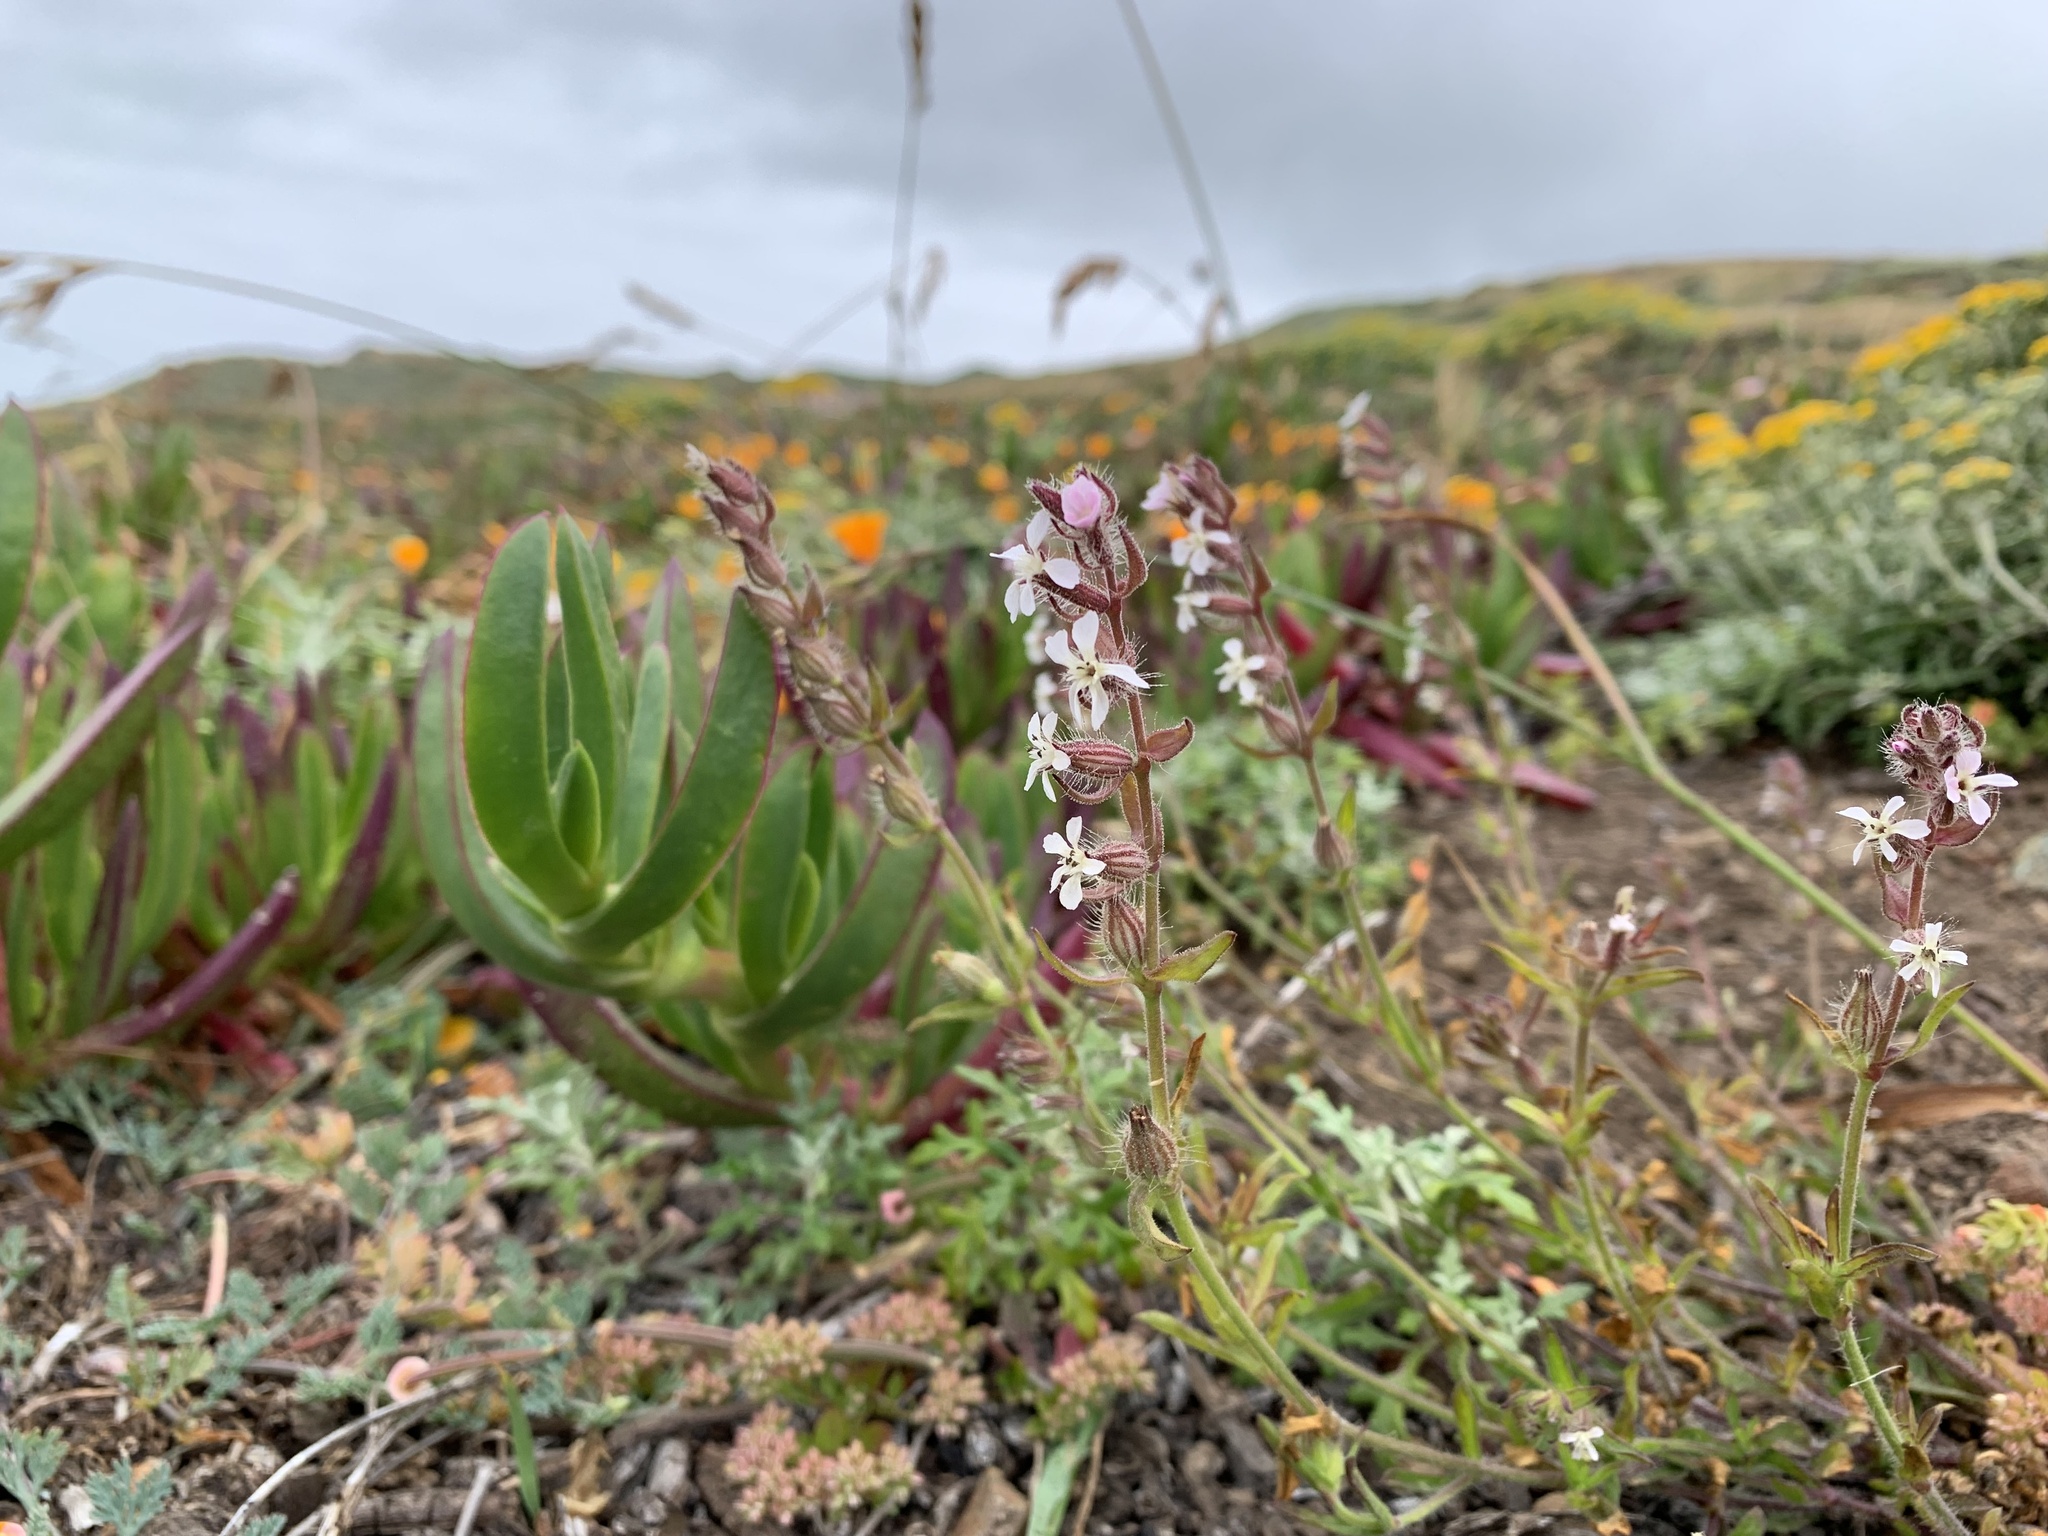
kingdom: Plantae
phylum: Tracheophyta
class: Magnoliopsida
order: Caryophyllales
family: Caryophyllaceae
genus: Silene
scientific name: Silene gallica
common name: Small-flowered catchfly
